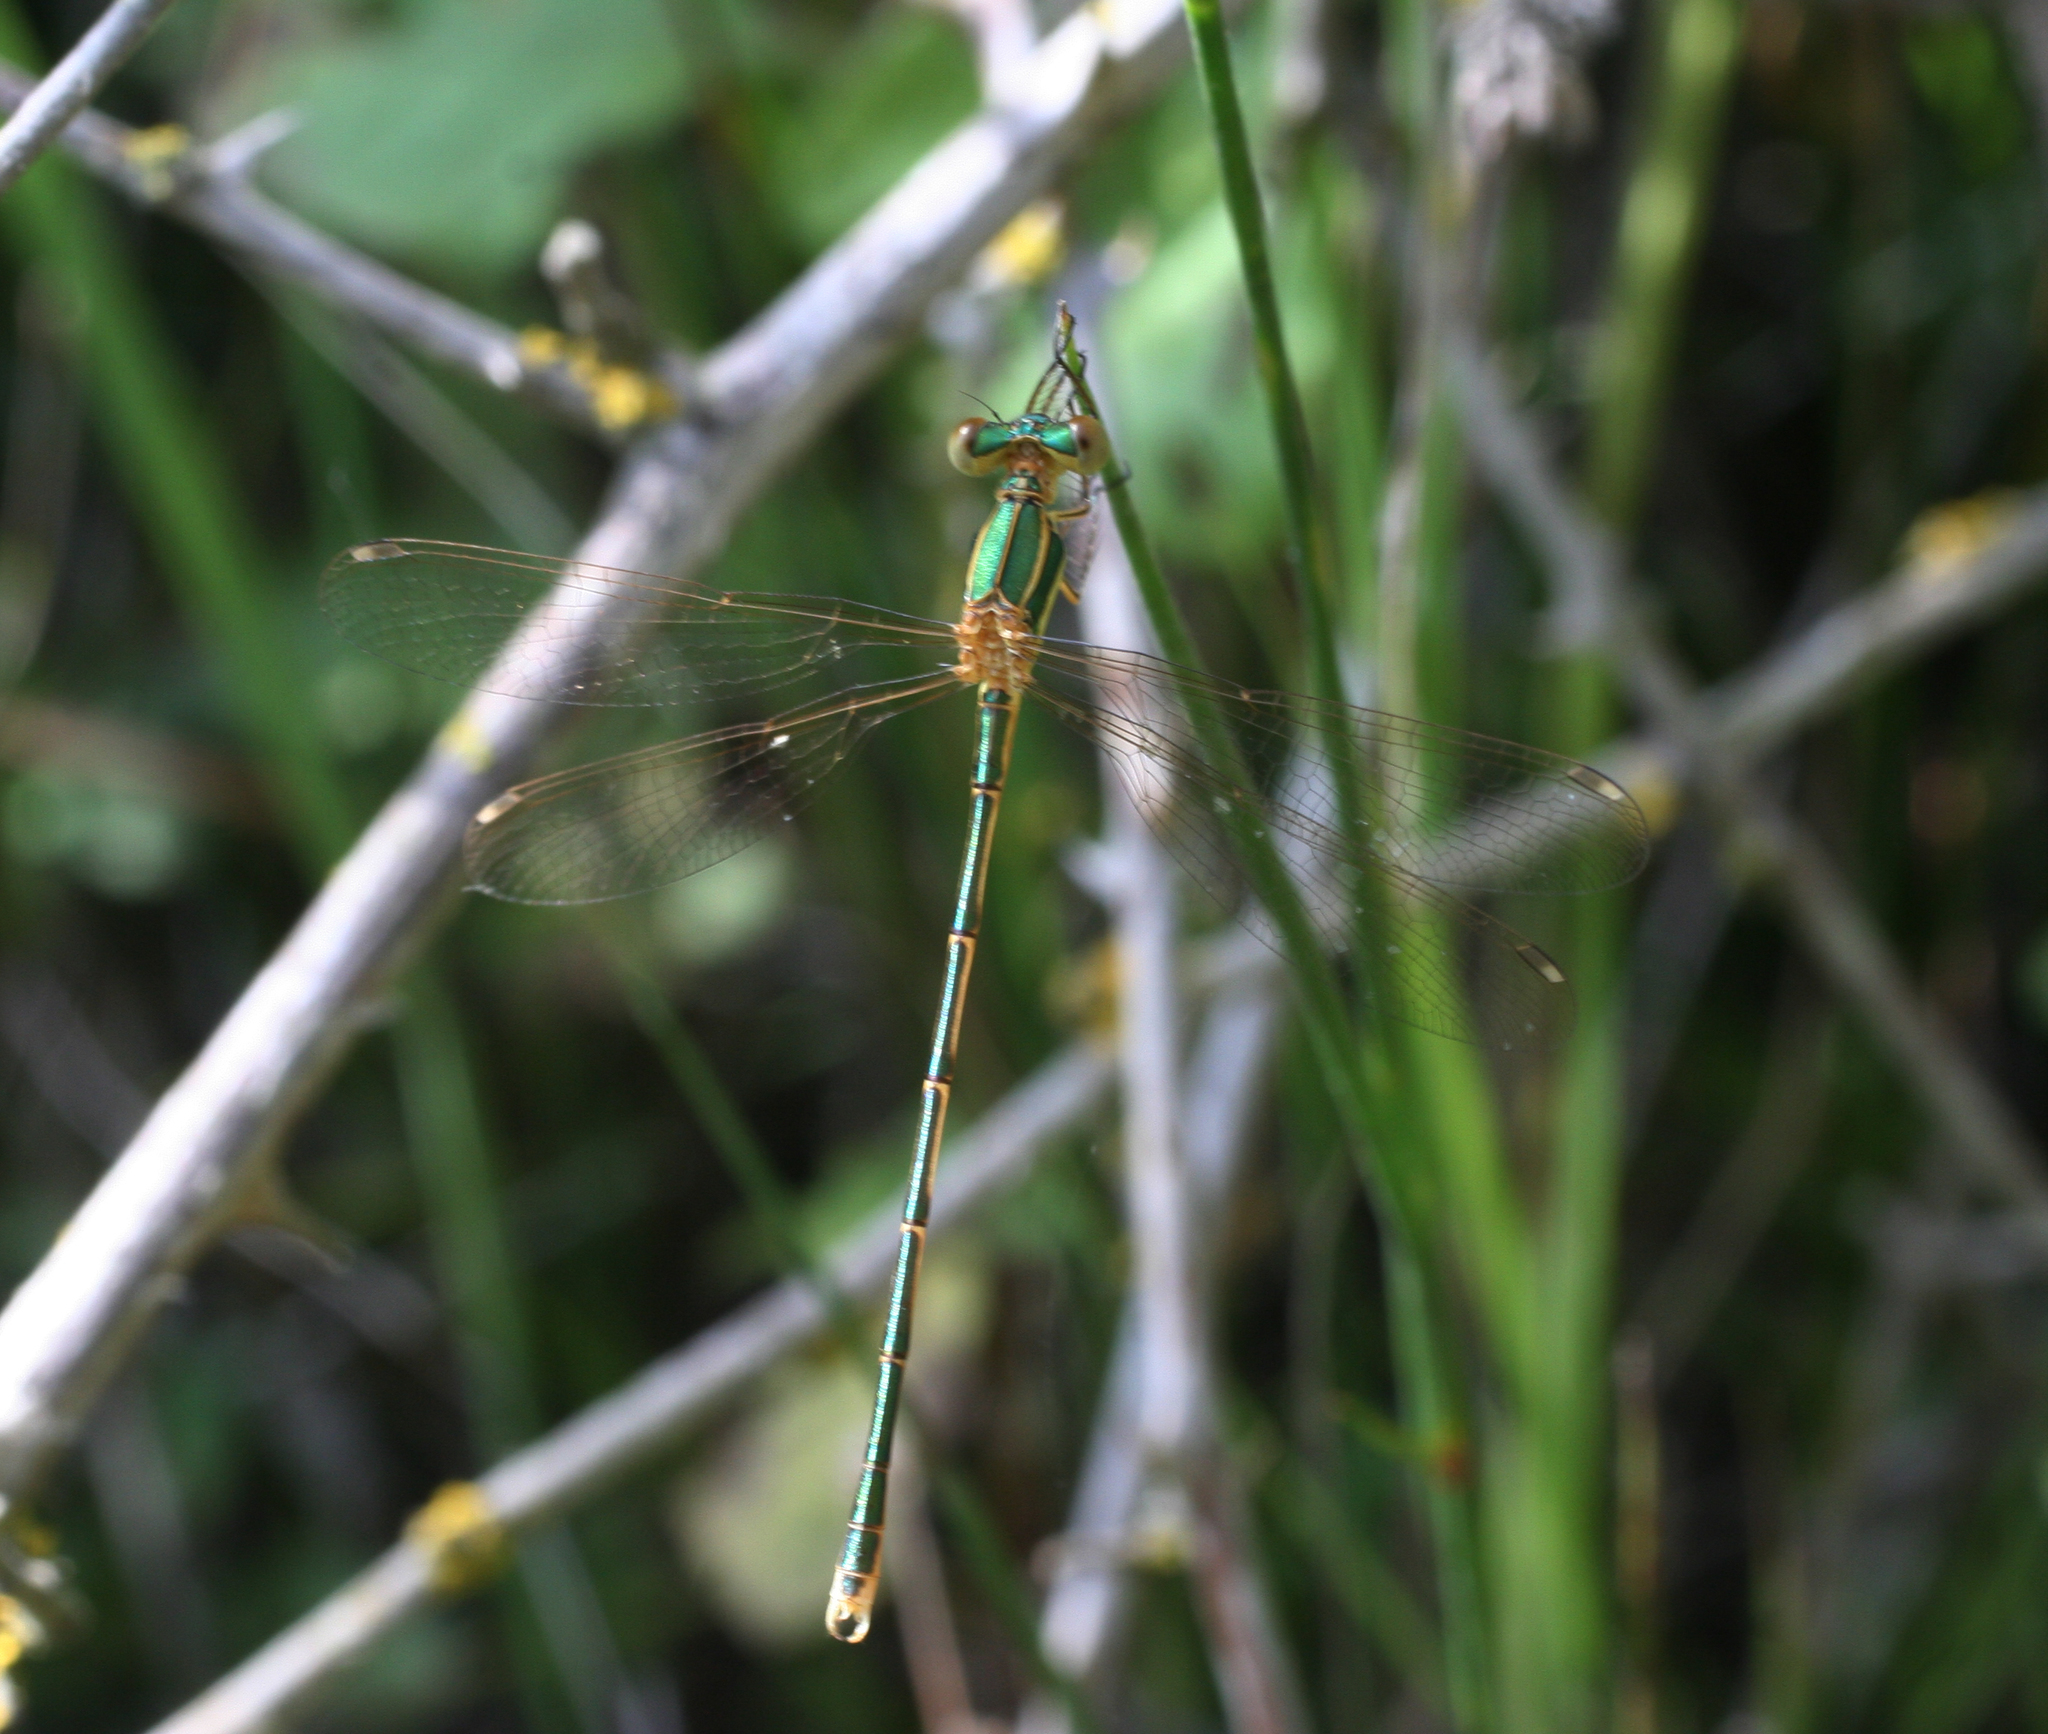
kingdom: Animalia
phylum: Arthropoda
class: Insecta
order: Odonata
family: Lestidae
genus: Lestes
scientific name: Lestes barbarus
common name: Migrant spreadwing
